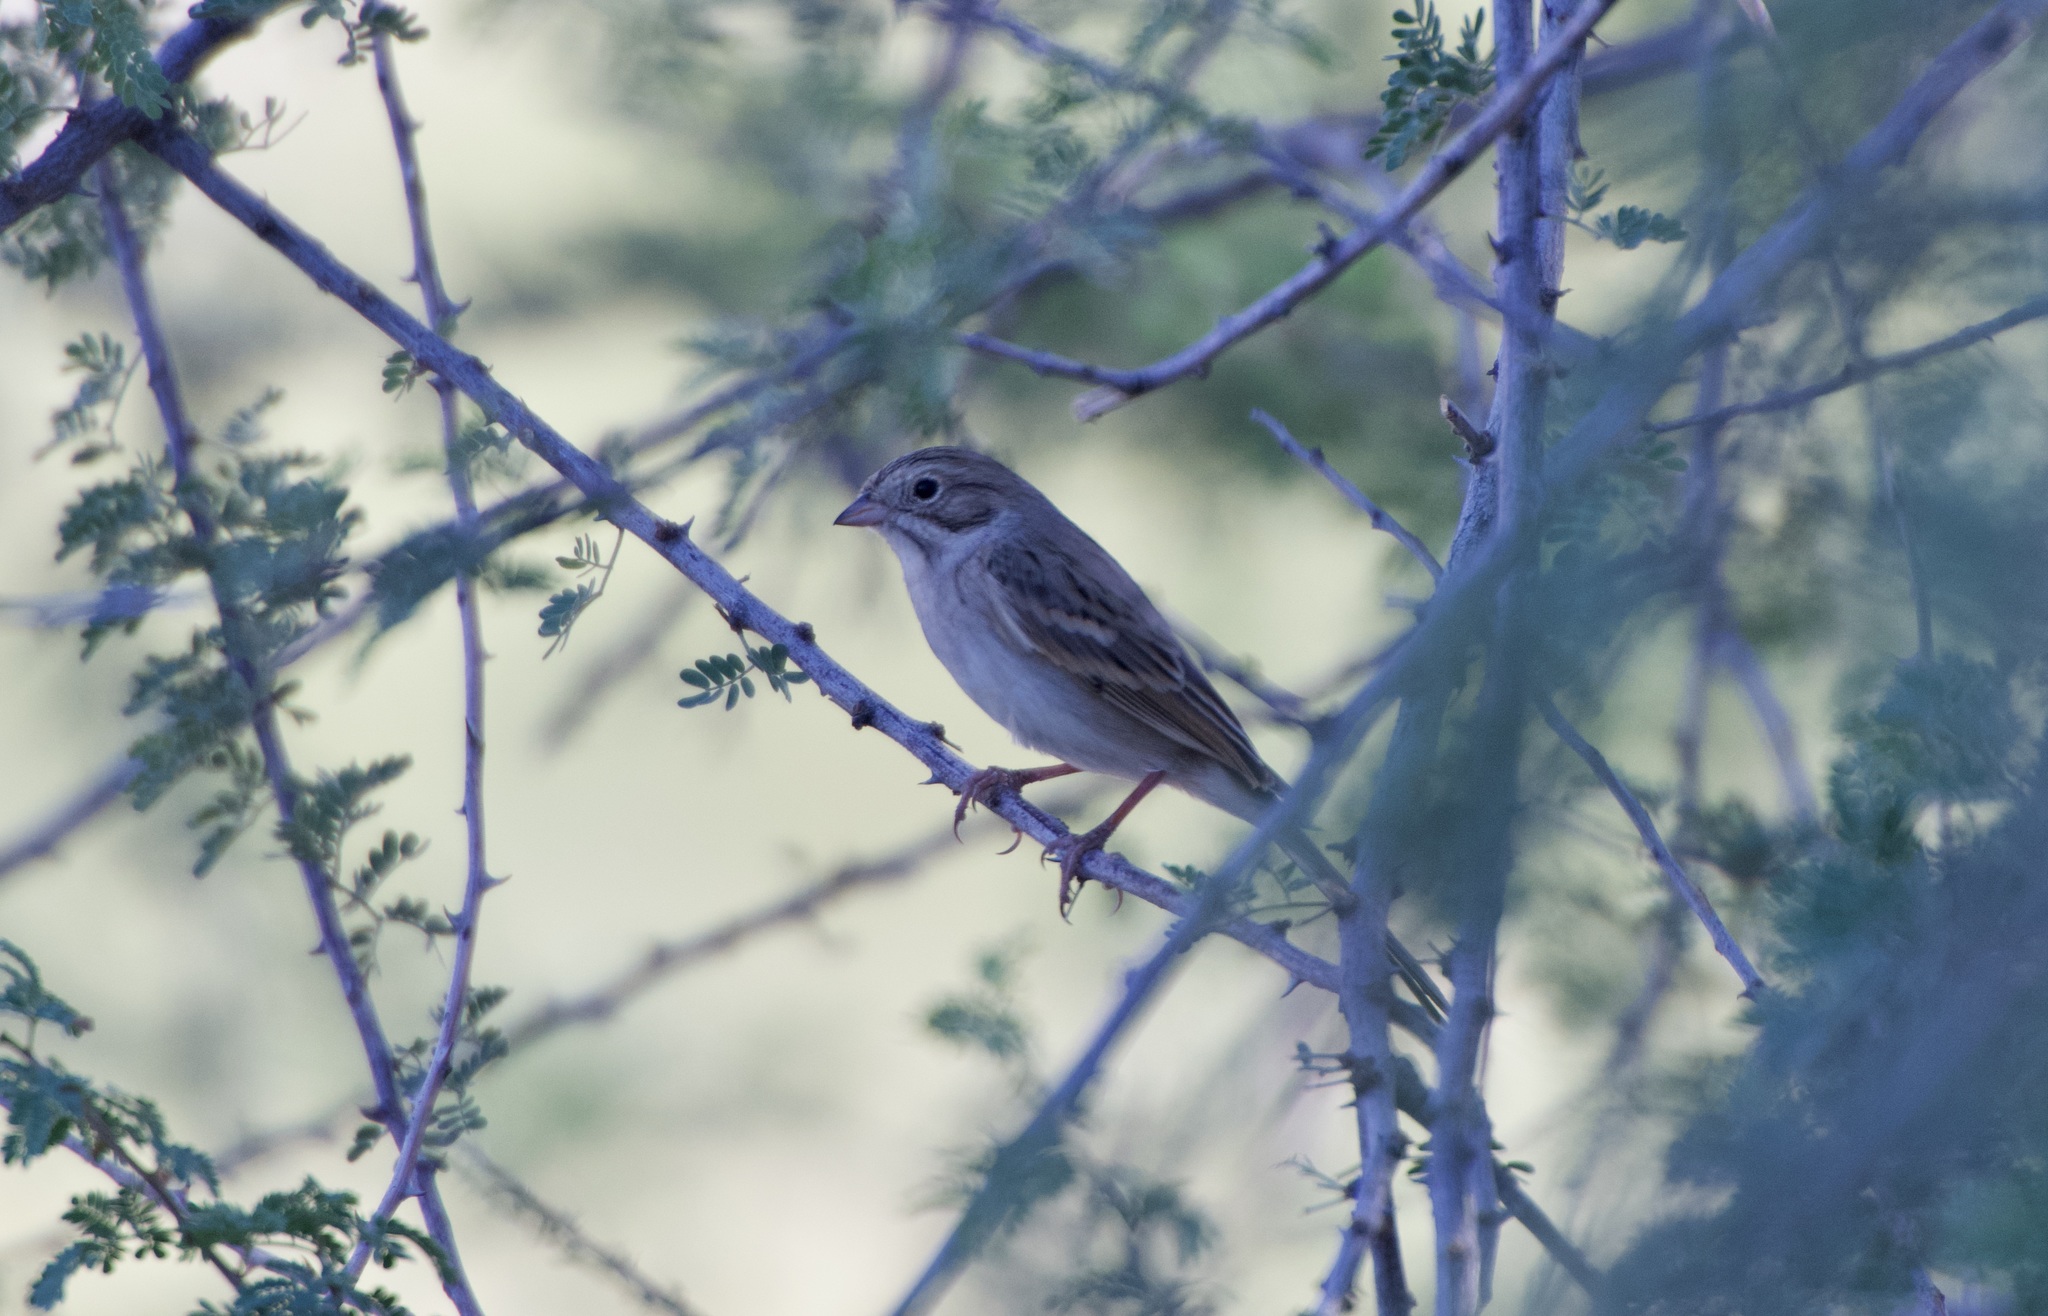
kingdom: Animalia
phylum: Chordata
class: Aves
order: Passeriformes
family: Passerellidae
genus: Spizella
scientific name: Spizella pallida
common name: Clay-colored sparrow
